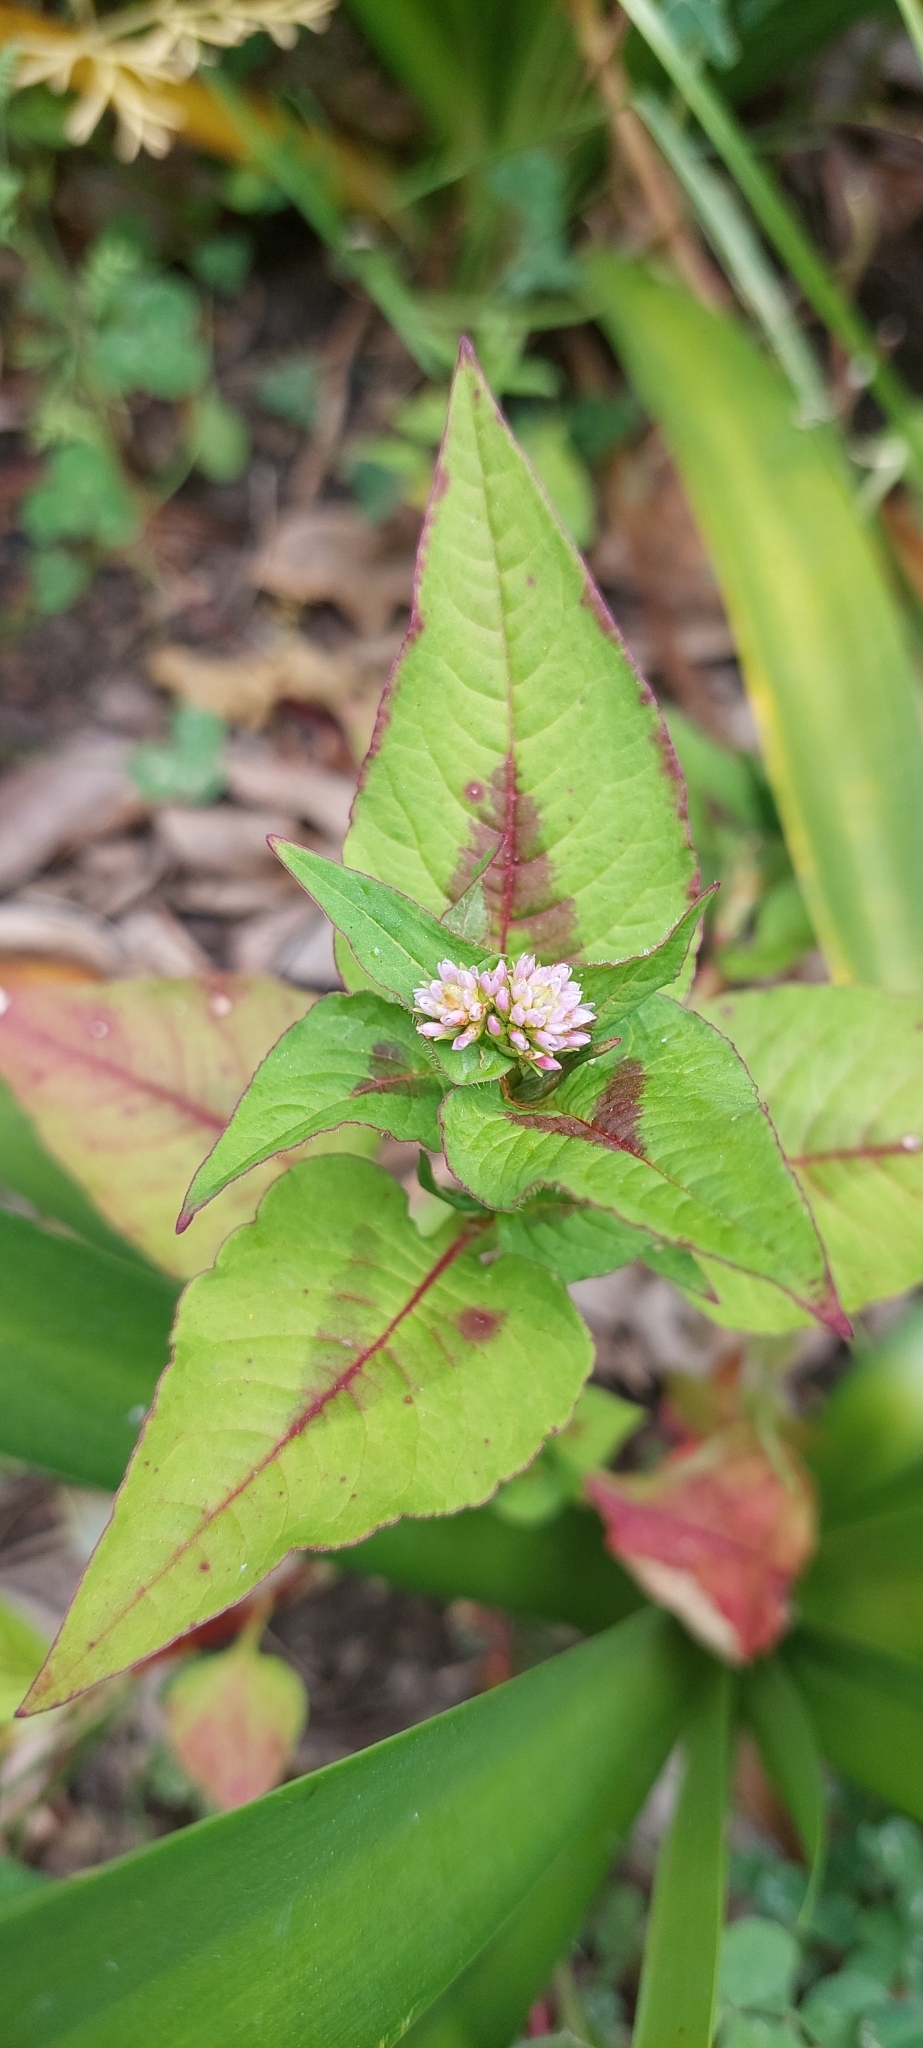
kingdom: Plantae
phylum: Tracheophyta
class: Magnoliopsida
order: Caryophyllales
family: Polygonaceae
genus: Persicaria
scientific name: Persicaria nepalensis
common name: Nepal persicaria
